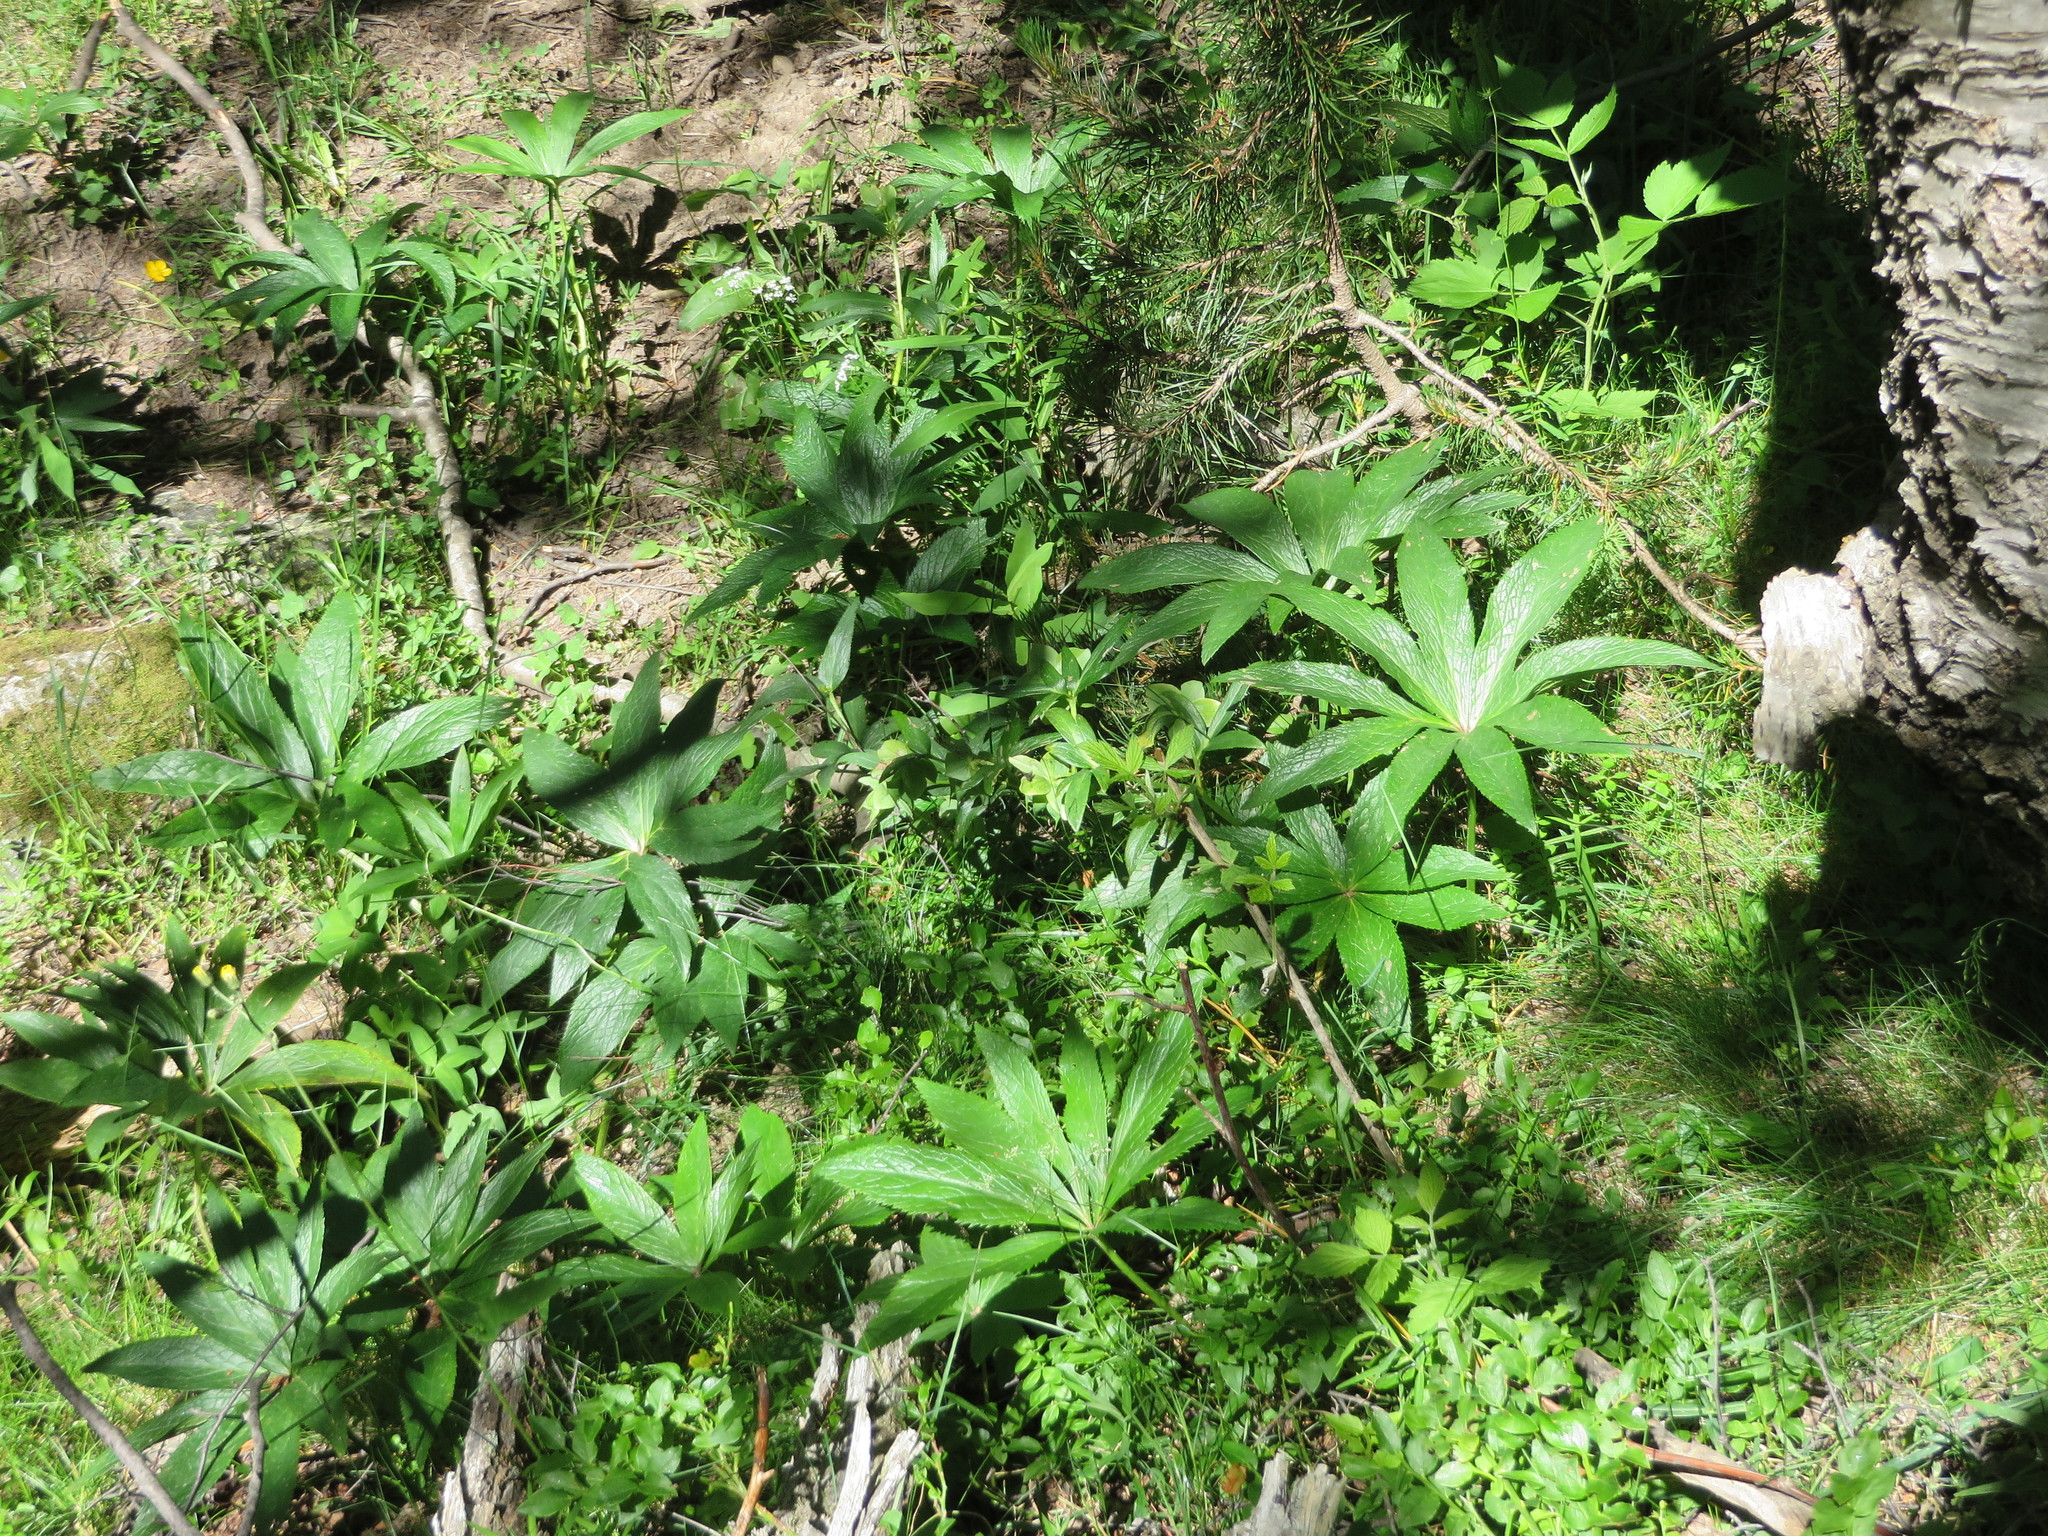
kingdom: Plantae
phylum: Tracheophyta
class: Magnoliopsida
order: Ranunculales
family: Ranunculaceae
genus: Helleborus
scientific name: Helleborus viridis
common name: Green hellebore
